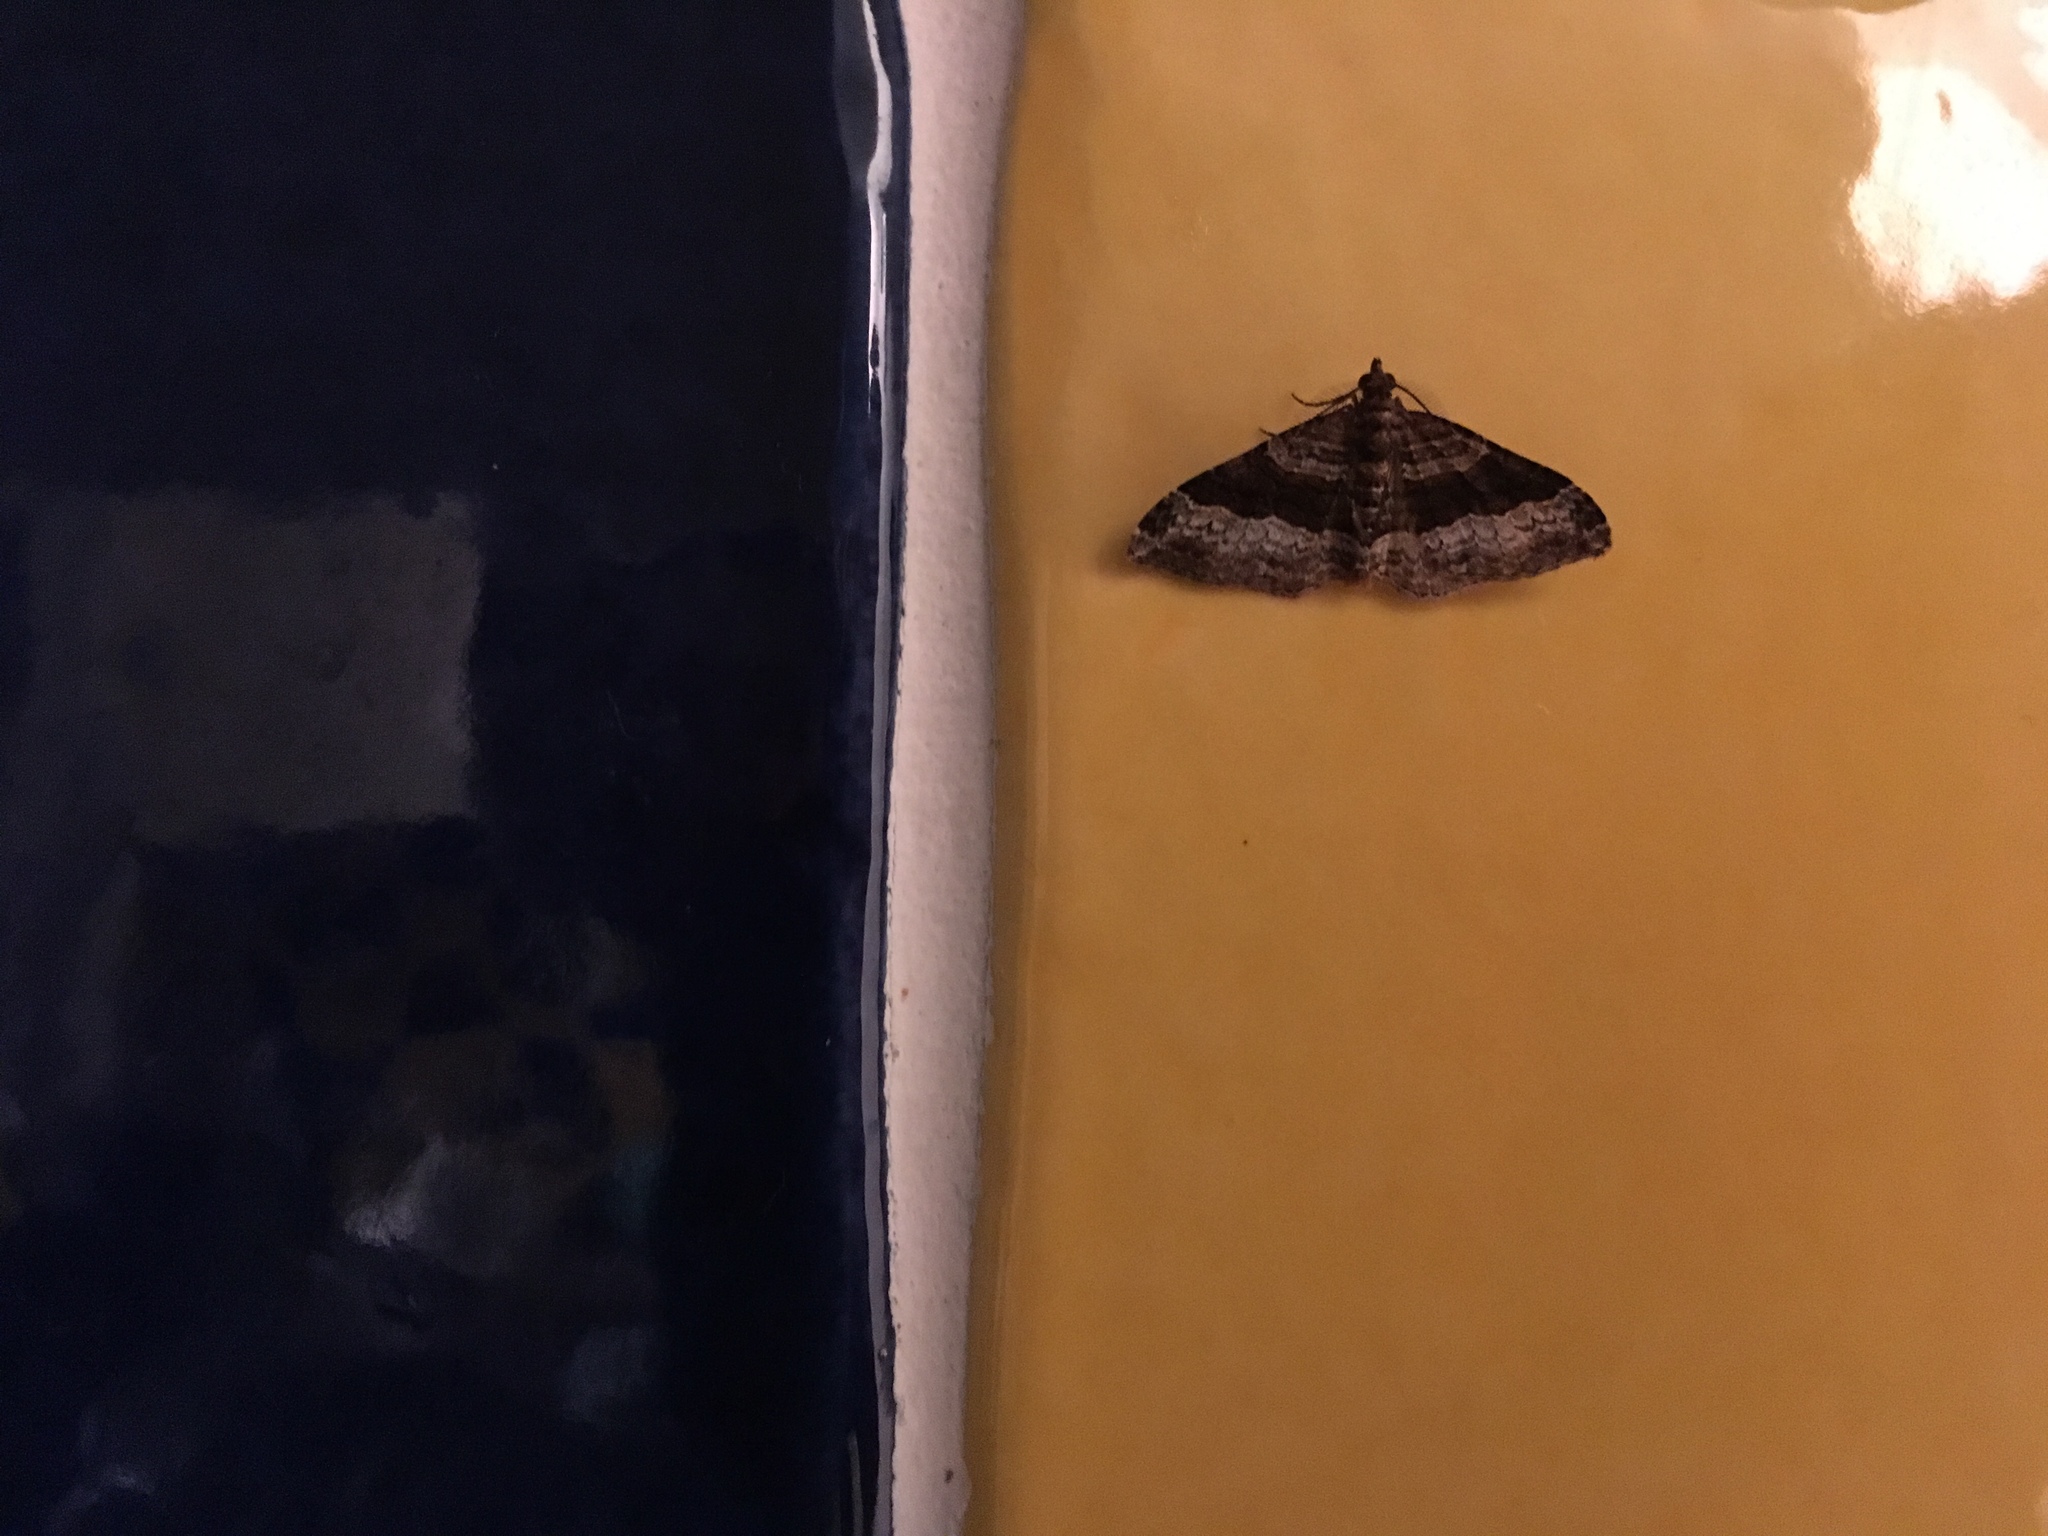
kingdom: Animalia
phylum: Arthropoda
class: Insecta
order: Lepidoptera
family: Geometridae
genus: Epyaxa
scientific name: Epyaxa lucidata
